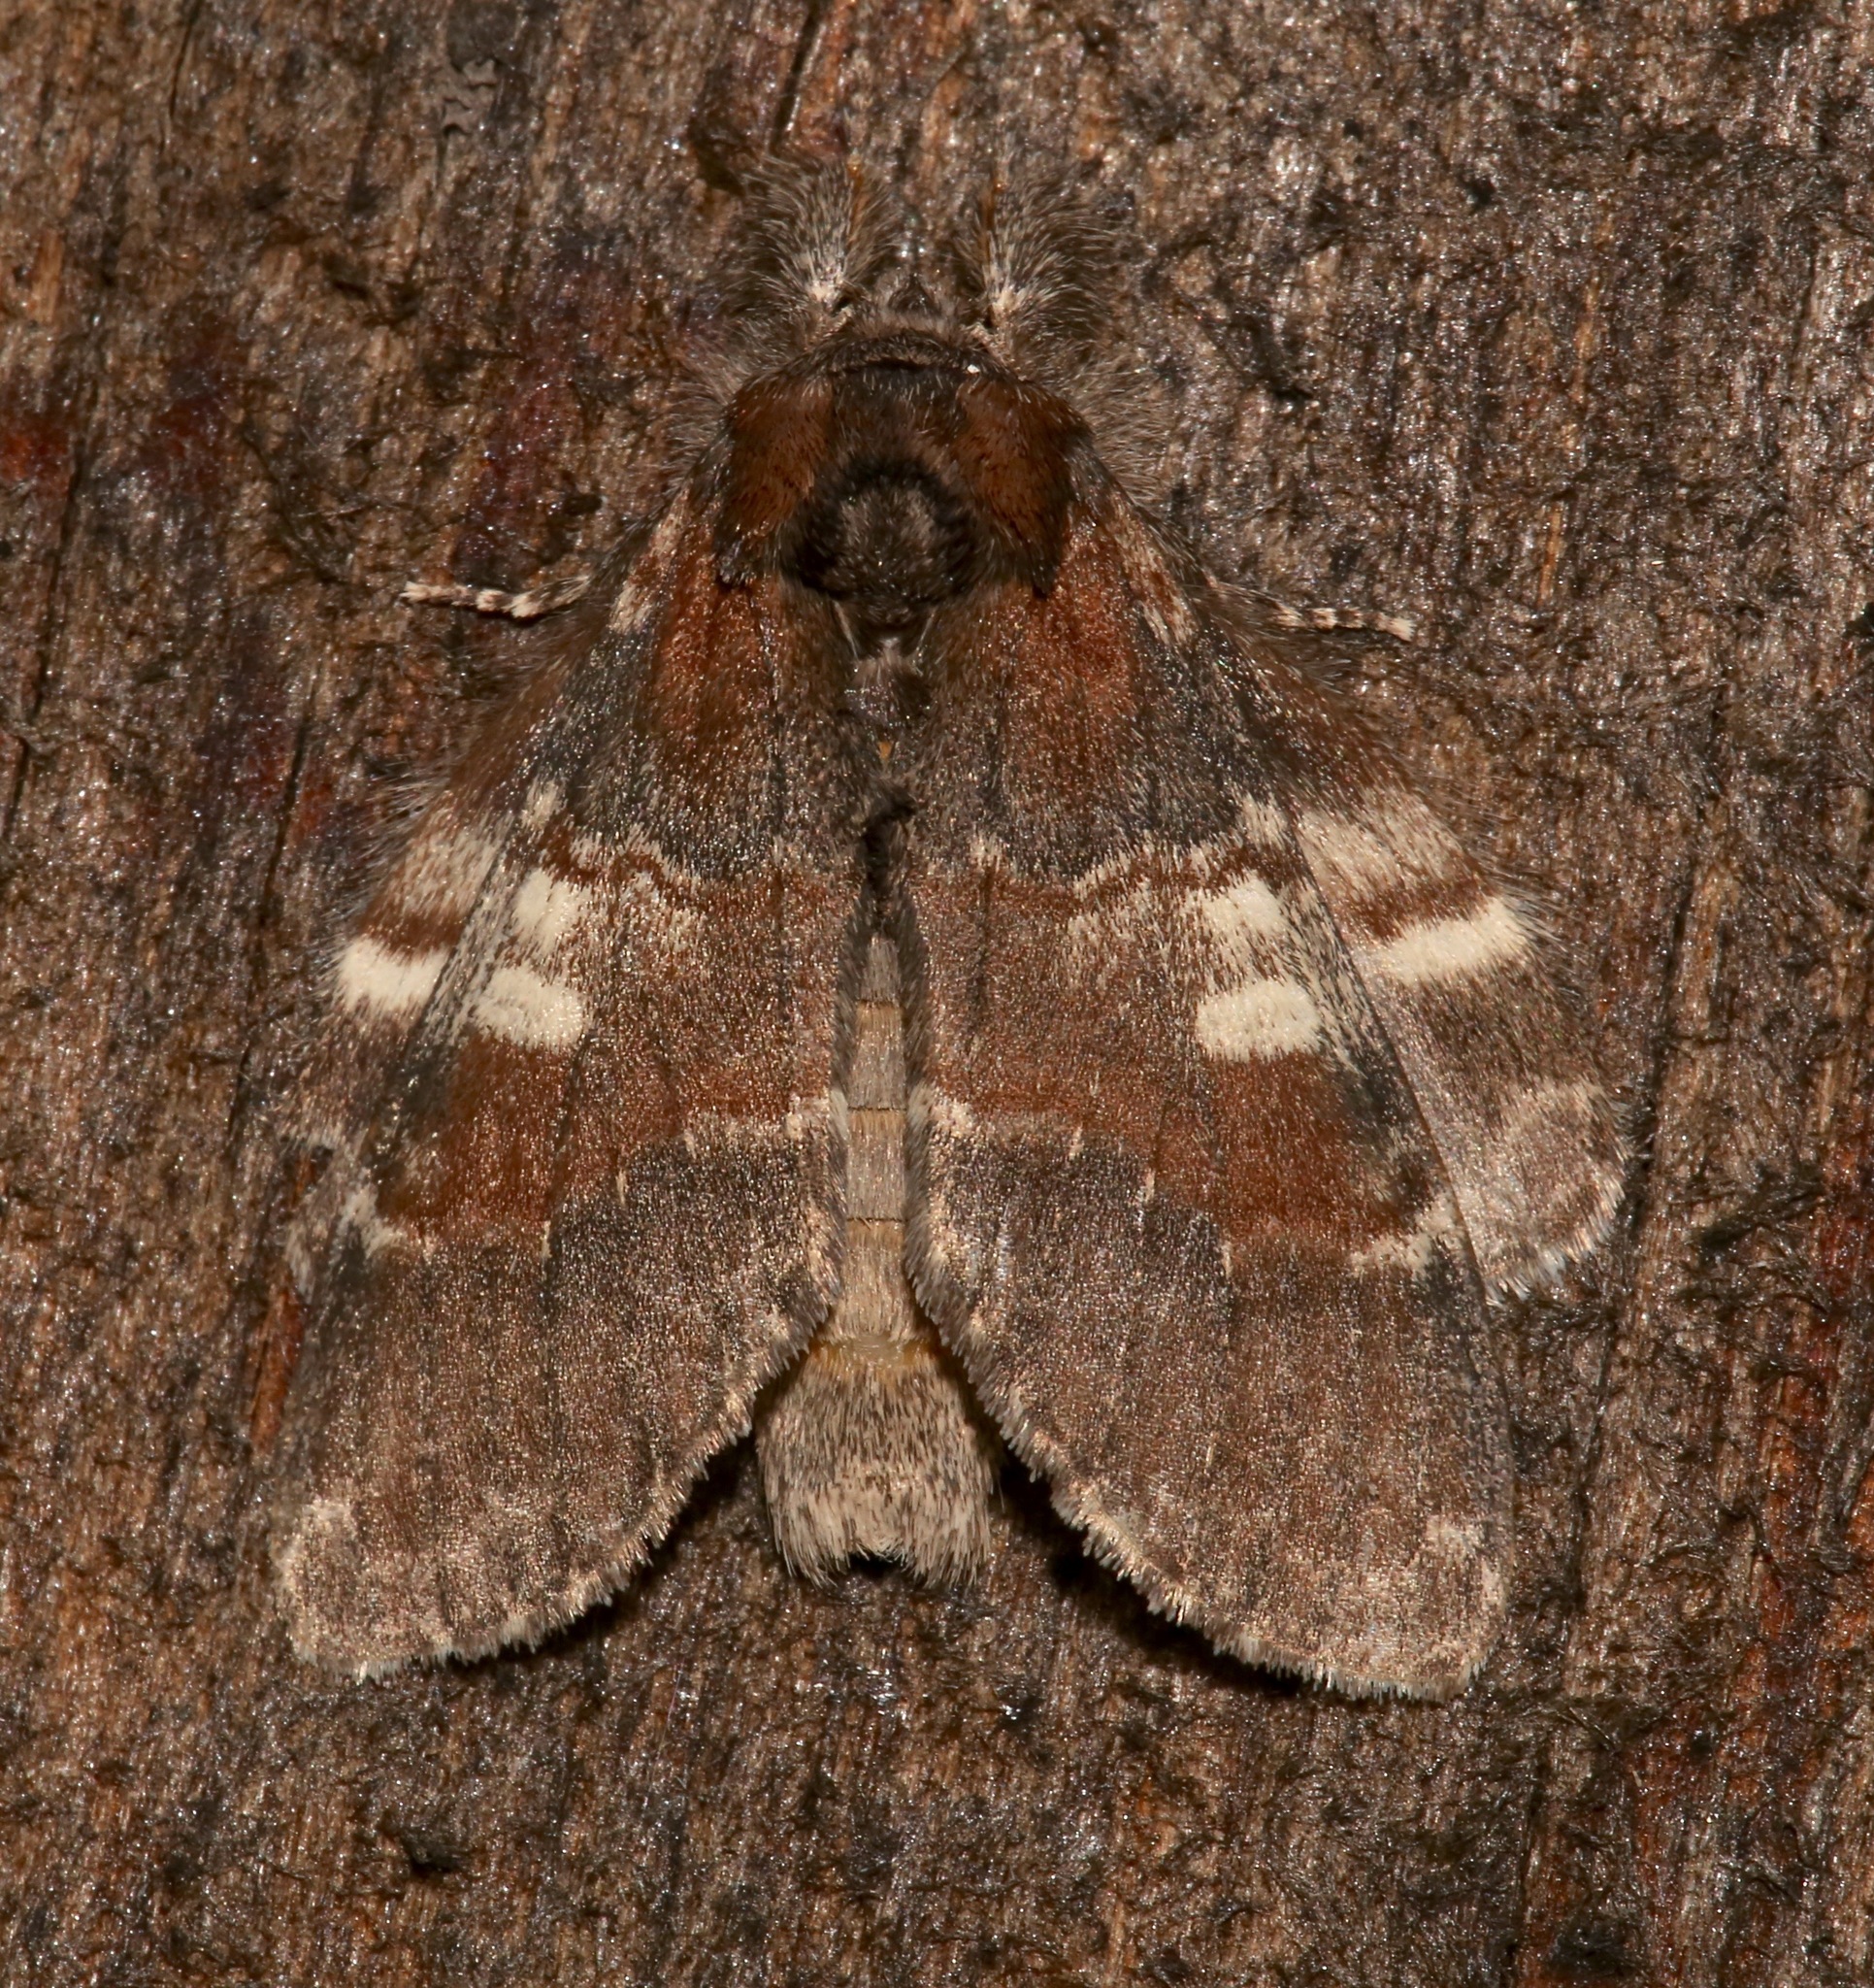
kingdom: Animalia
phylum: Arthropoda
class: Insecta
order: Lepidoptera
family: Notodontidae
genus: Peridea
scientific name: Peridea ferruginea
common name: Chocolate prominent
